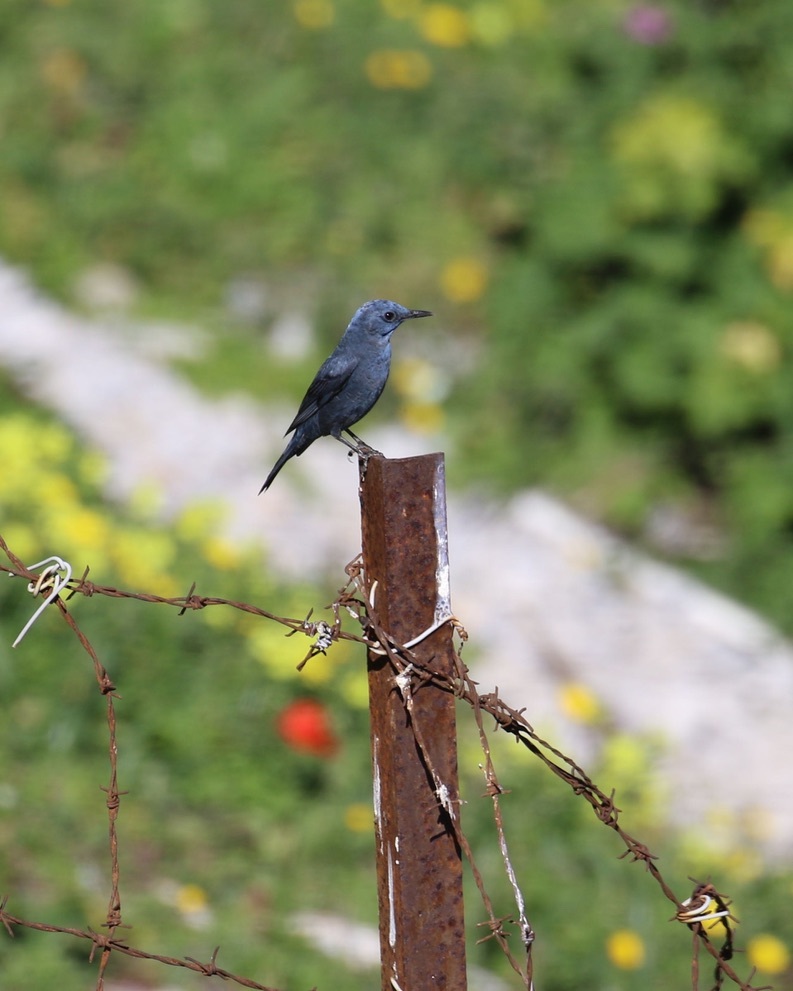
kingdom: Animalia
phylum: Chordata
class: Aves
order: Passeriformes
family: Muscicapidae
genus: Monticola
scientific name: Monticola solitarius
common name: Blue rock thrush
